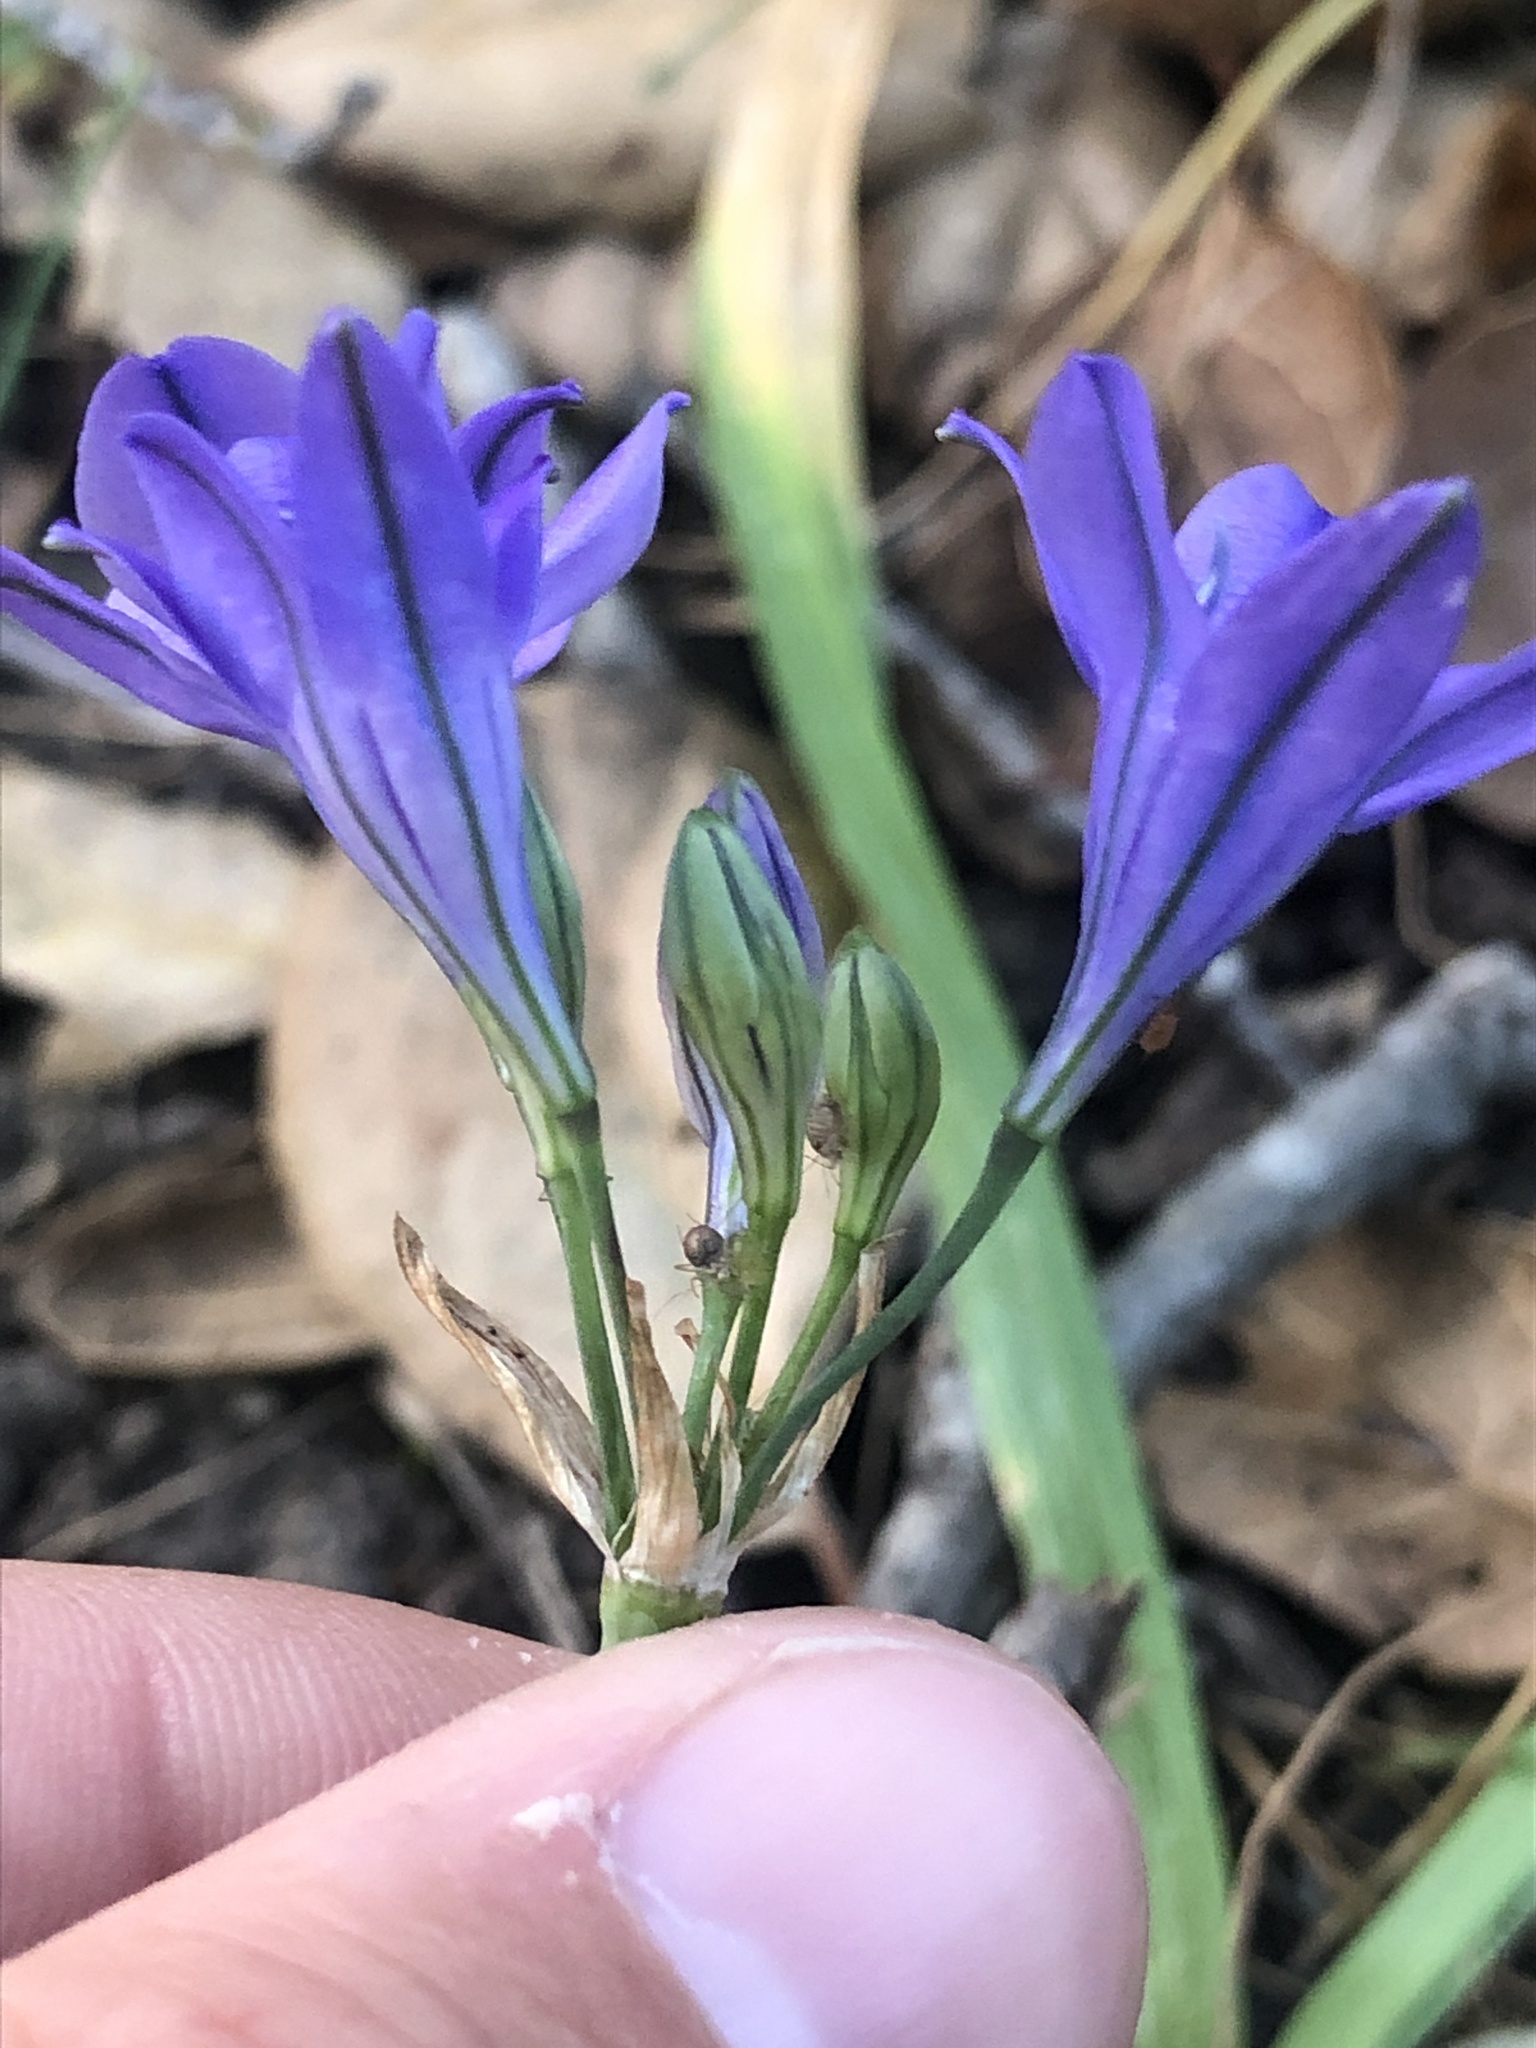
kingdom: Plantae
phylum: Tracheophyta
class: Liliopsida
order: Asparagales
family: Asparagaceae
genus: Triteleia
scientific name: Triteleia laxa
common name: Triplet-lily
